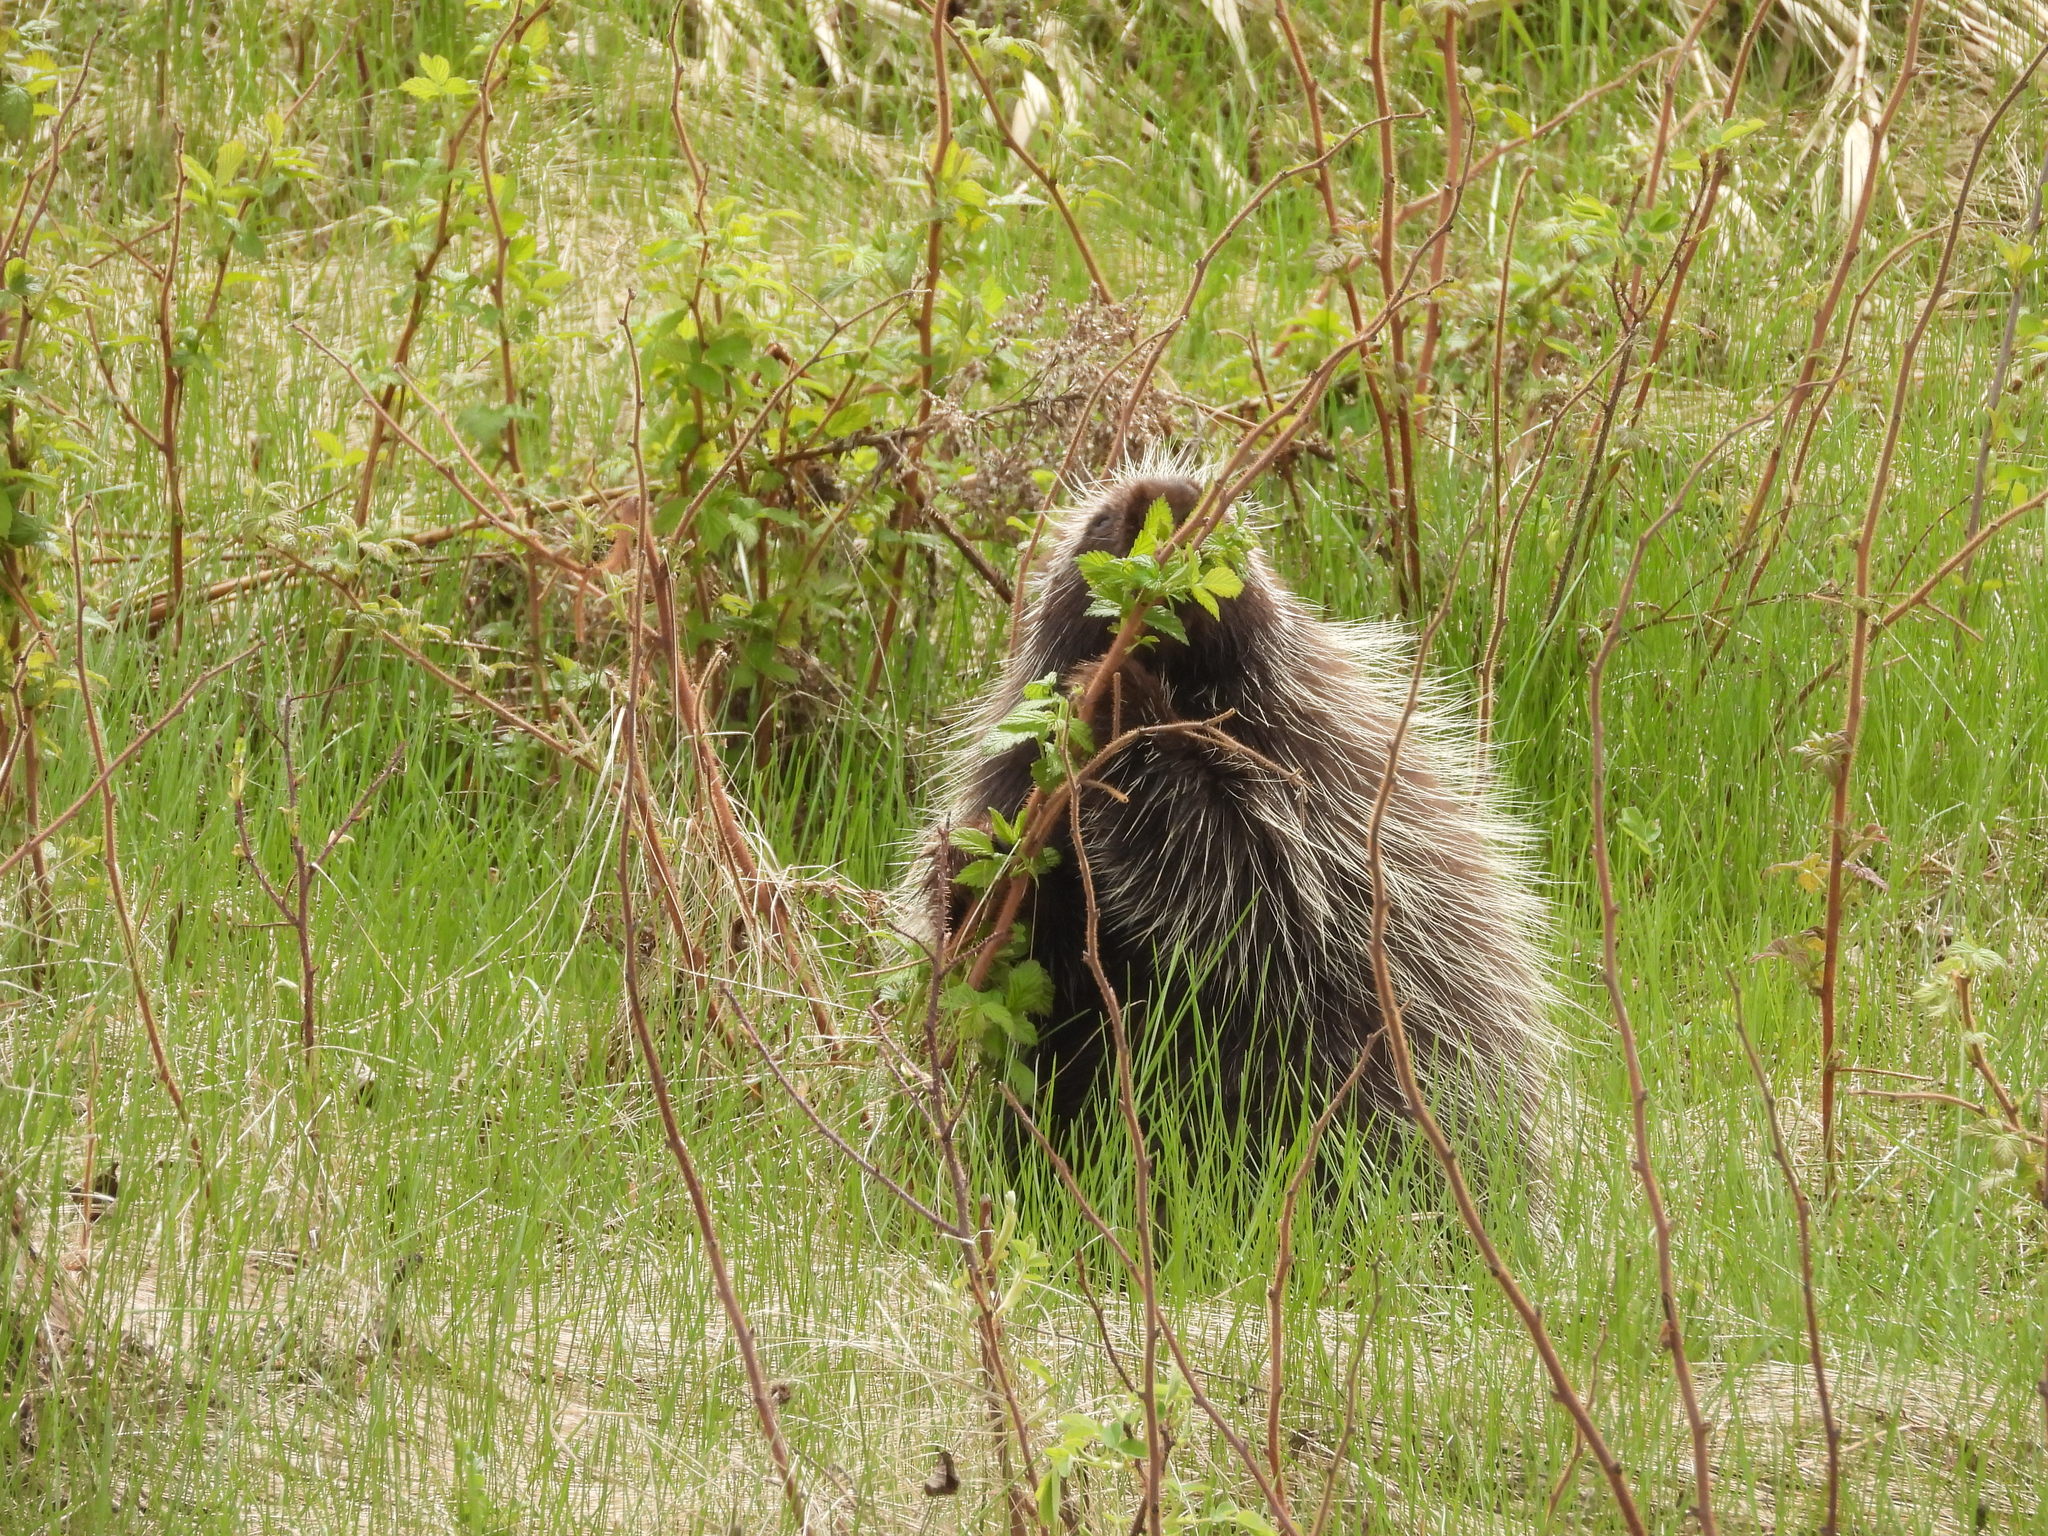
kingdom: Animalia
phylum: Chordata
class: Mammalia
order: Rodentia
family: Erethizontidae
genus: Erethizon
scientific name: Erethizon dorsatus
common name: North american porcupine
